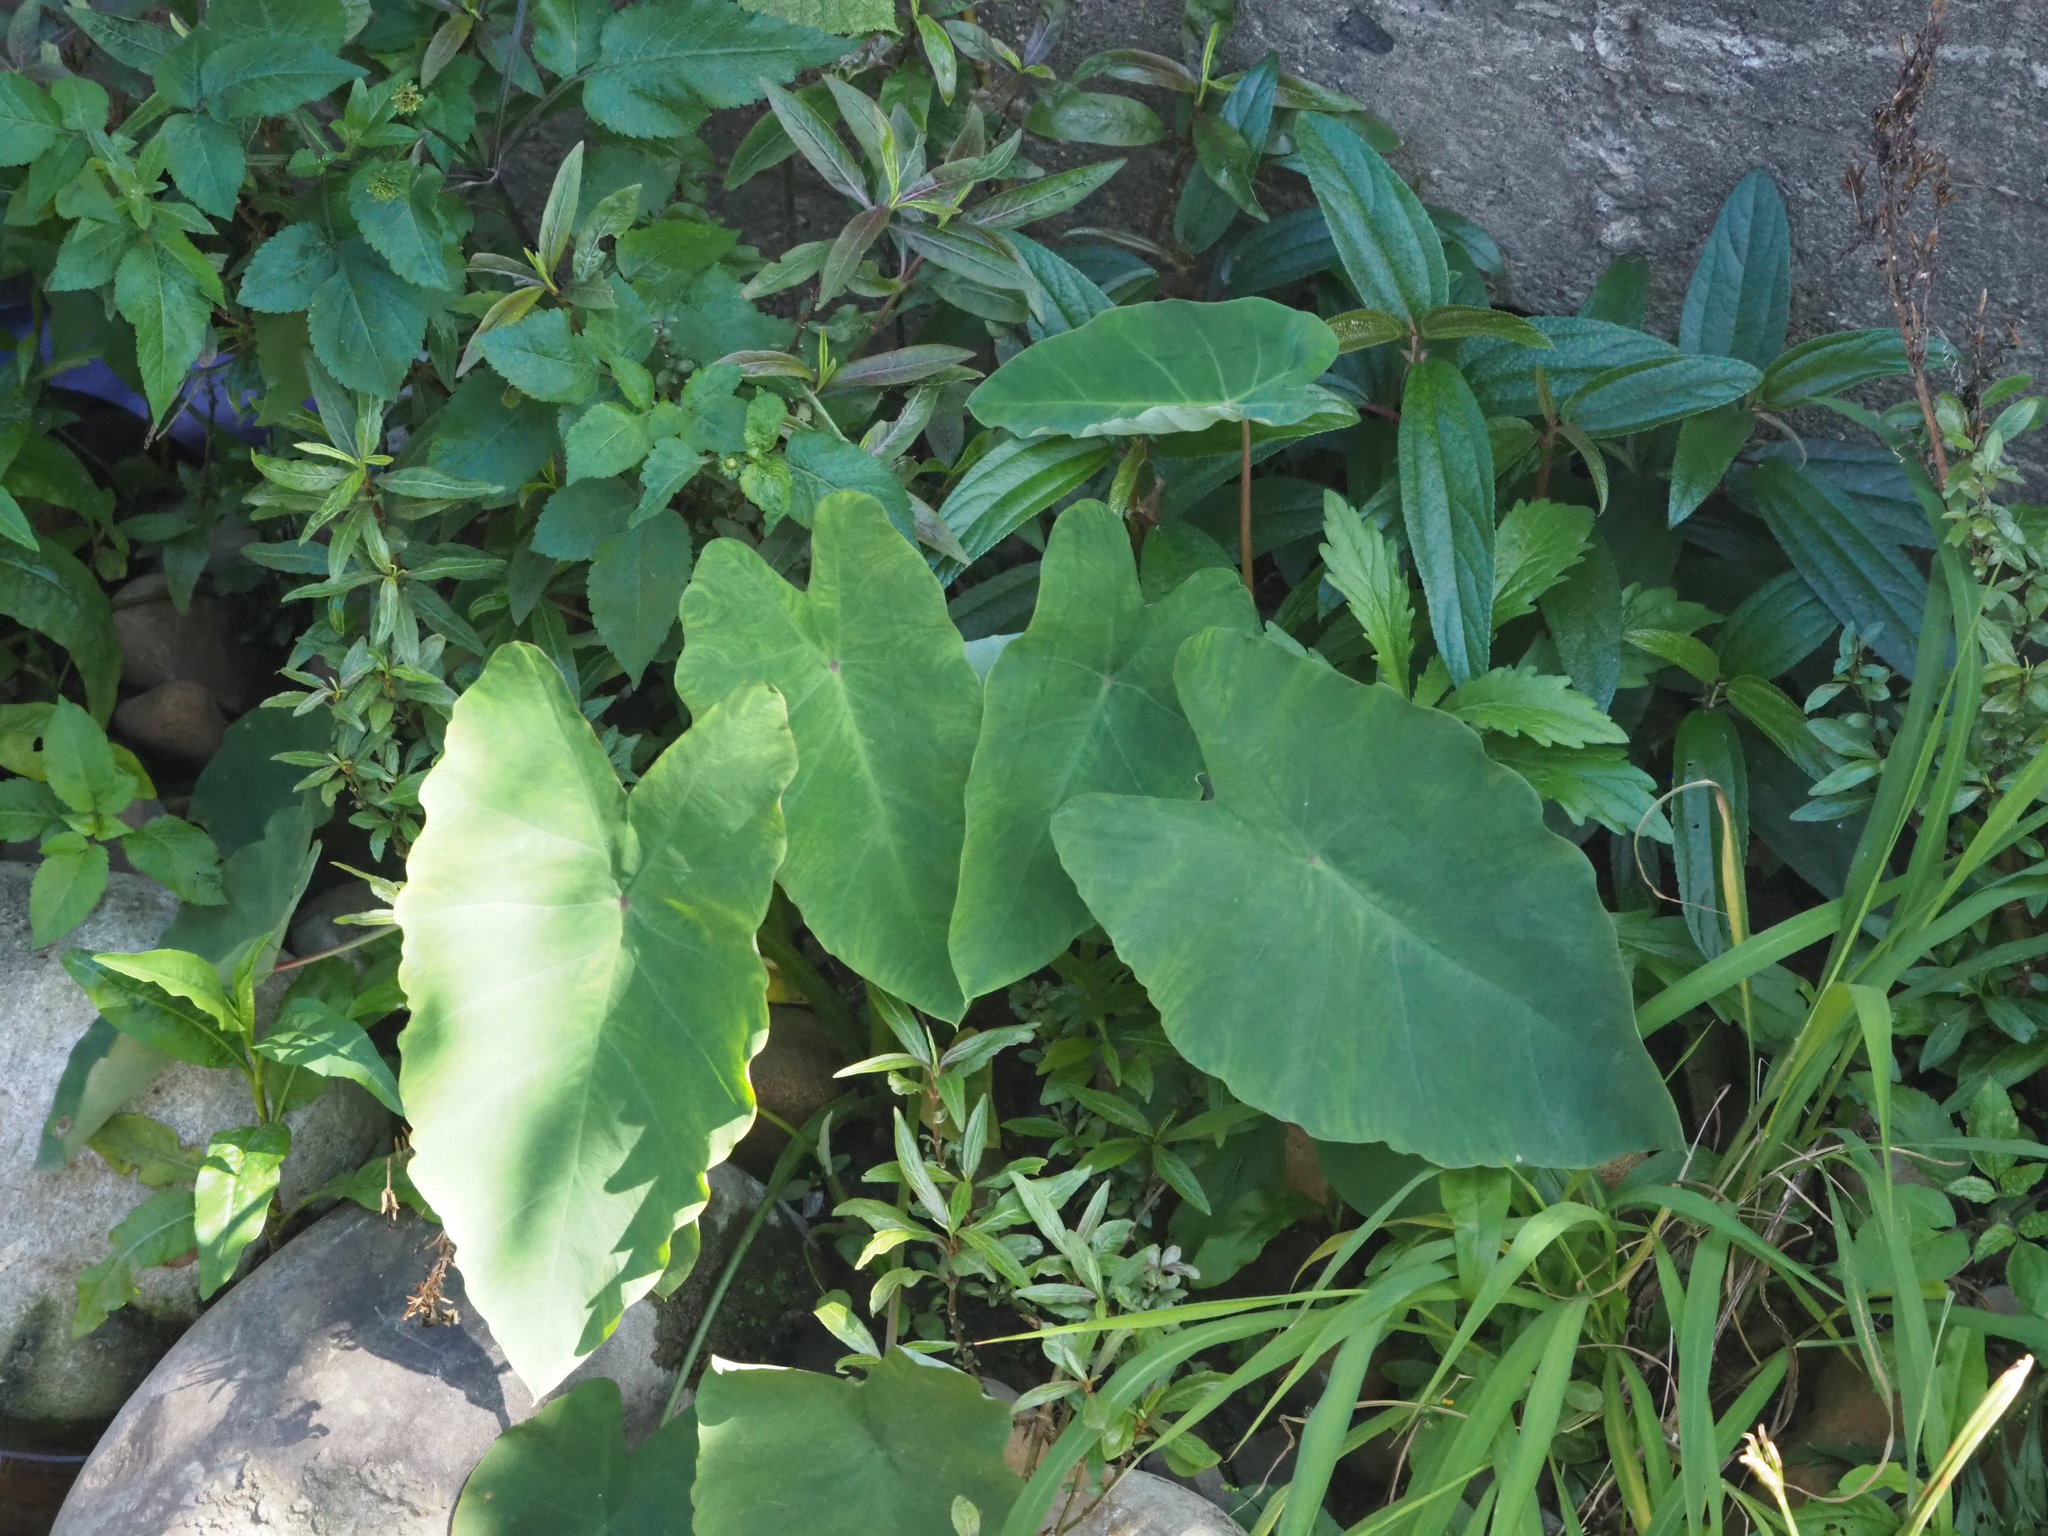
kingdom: Plantae
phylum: Tracheophyta
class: Liliopsida
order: Alismatales
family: Araceae
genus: Colocasia
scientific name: Colocasia esculenta
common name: Taro
